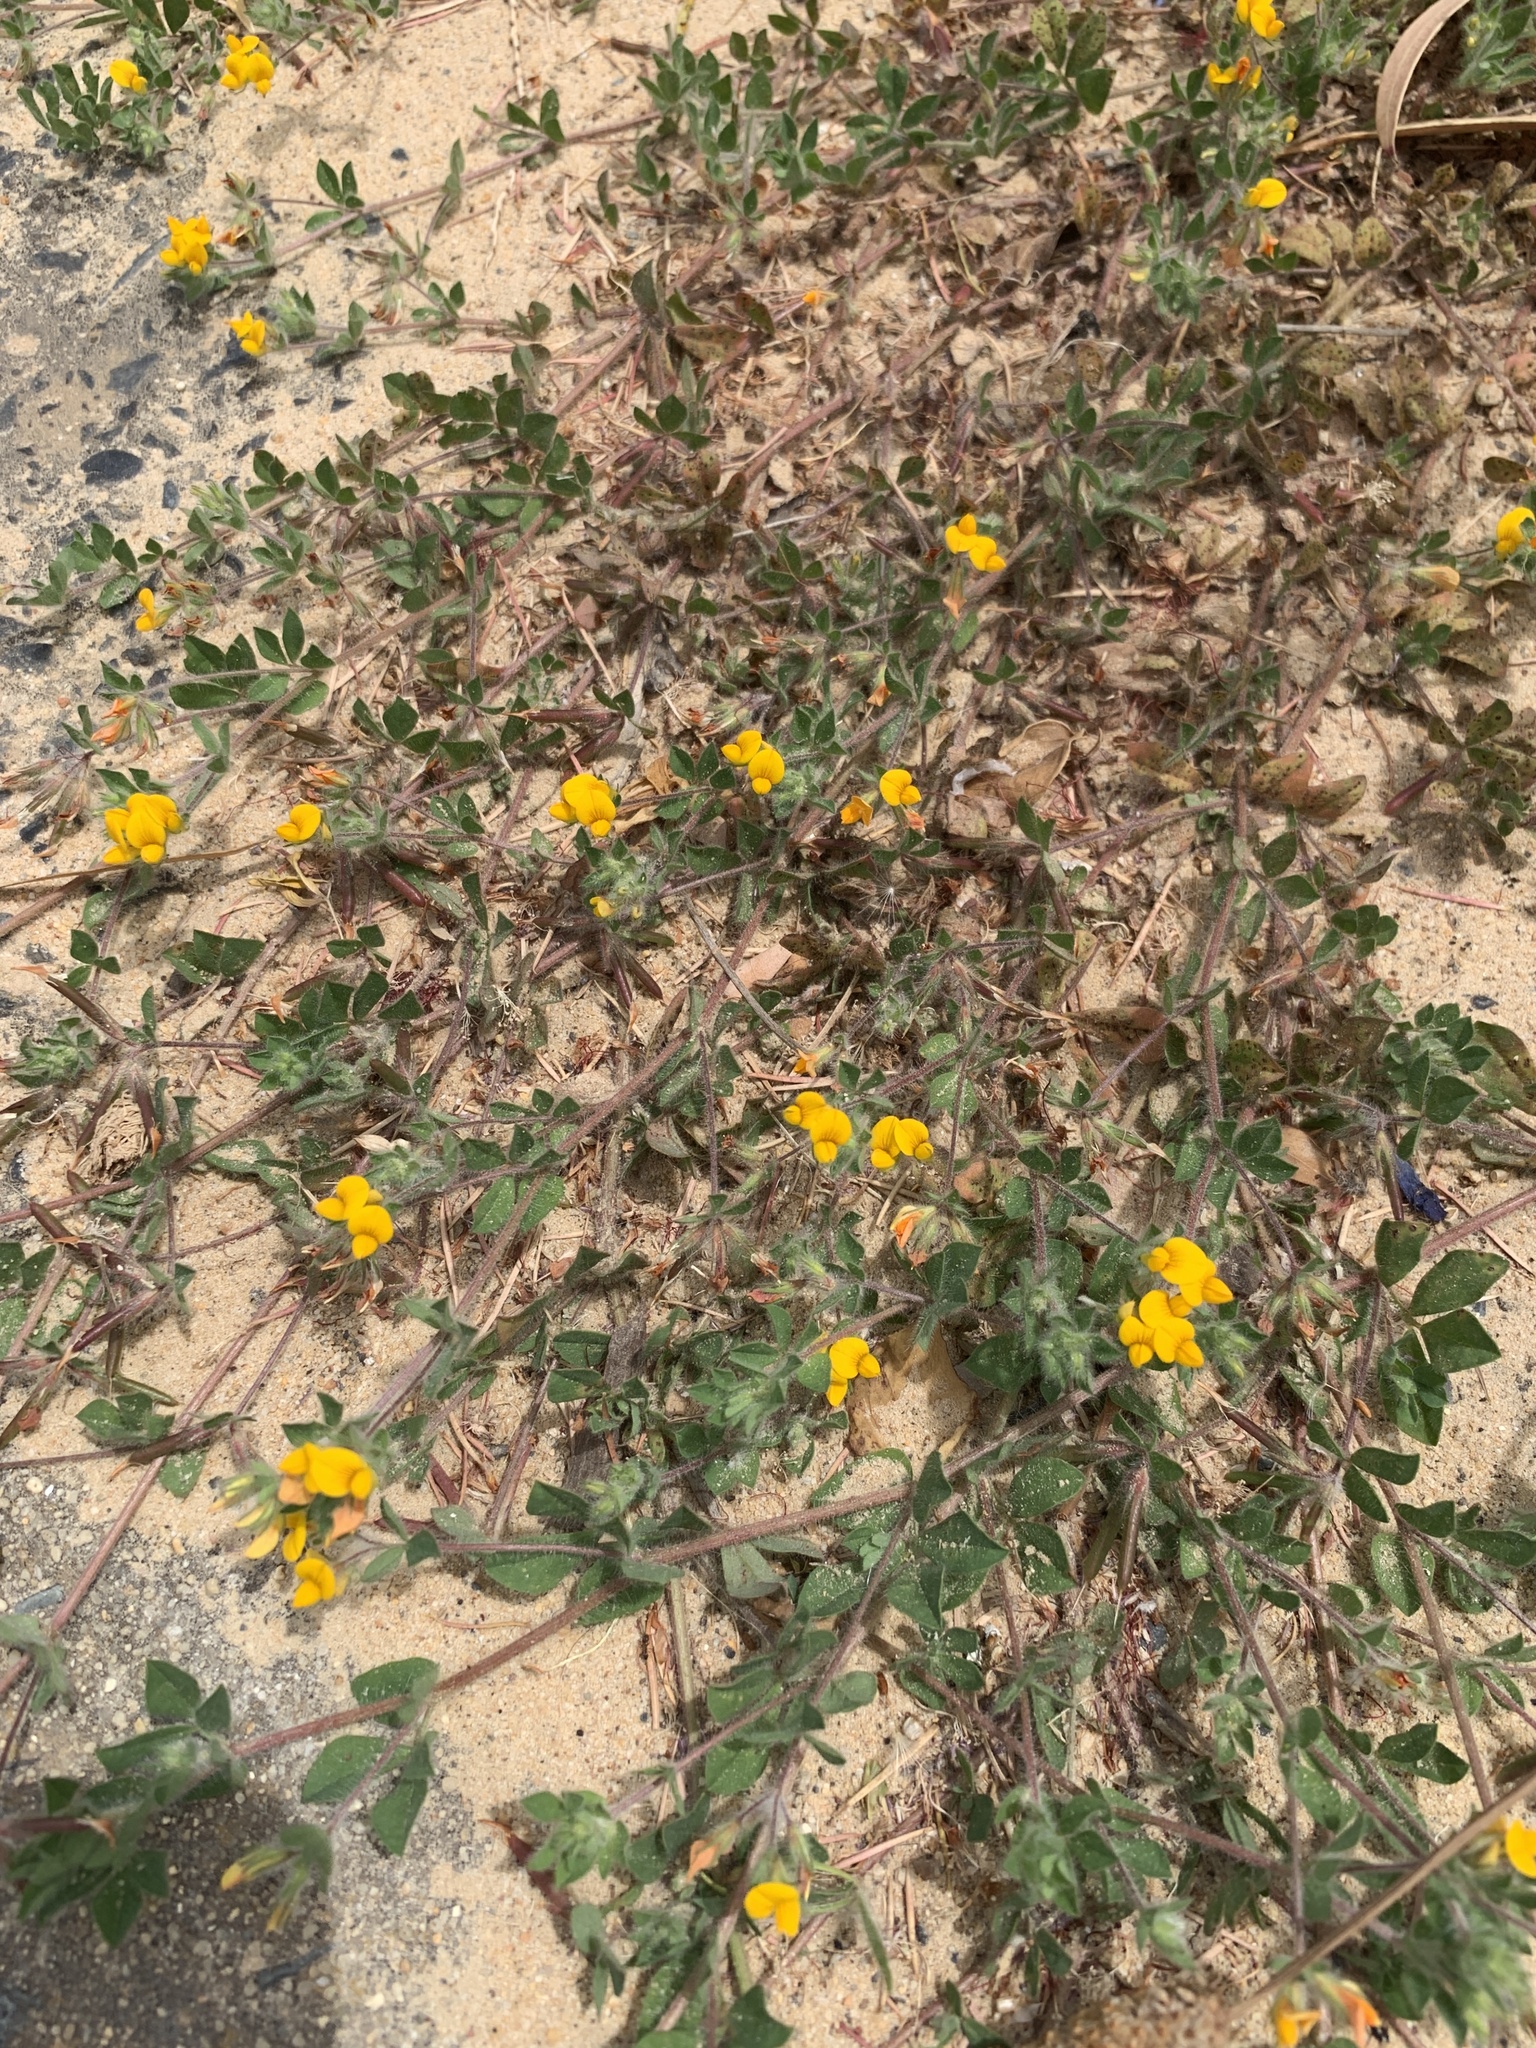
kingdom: Plantae
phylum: Tracheophyta
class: Magnoliopsida
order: Fabales
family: Fabaceae
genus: Lotus
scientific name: Lotus subbiflorus
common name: Hairy bird's-foot trefoil
